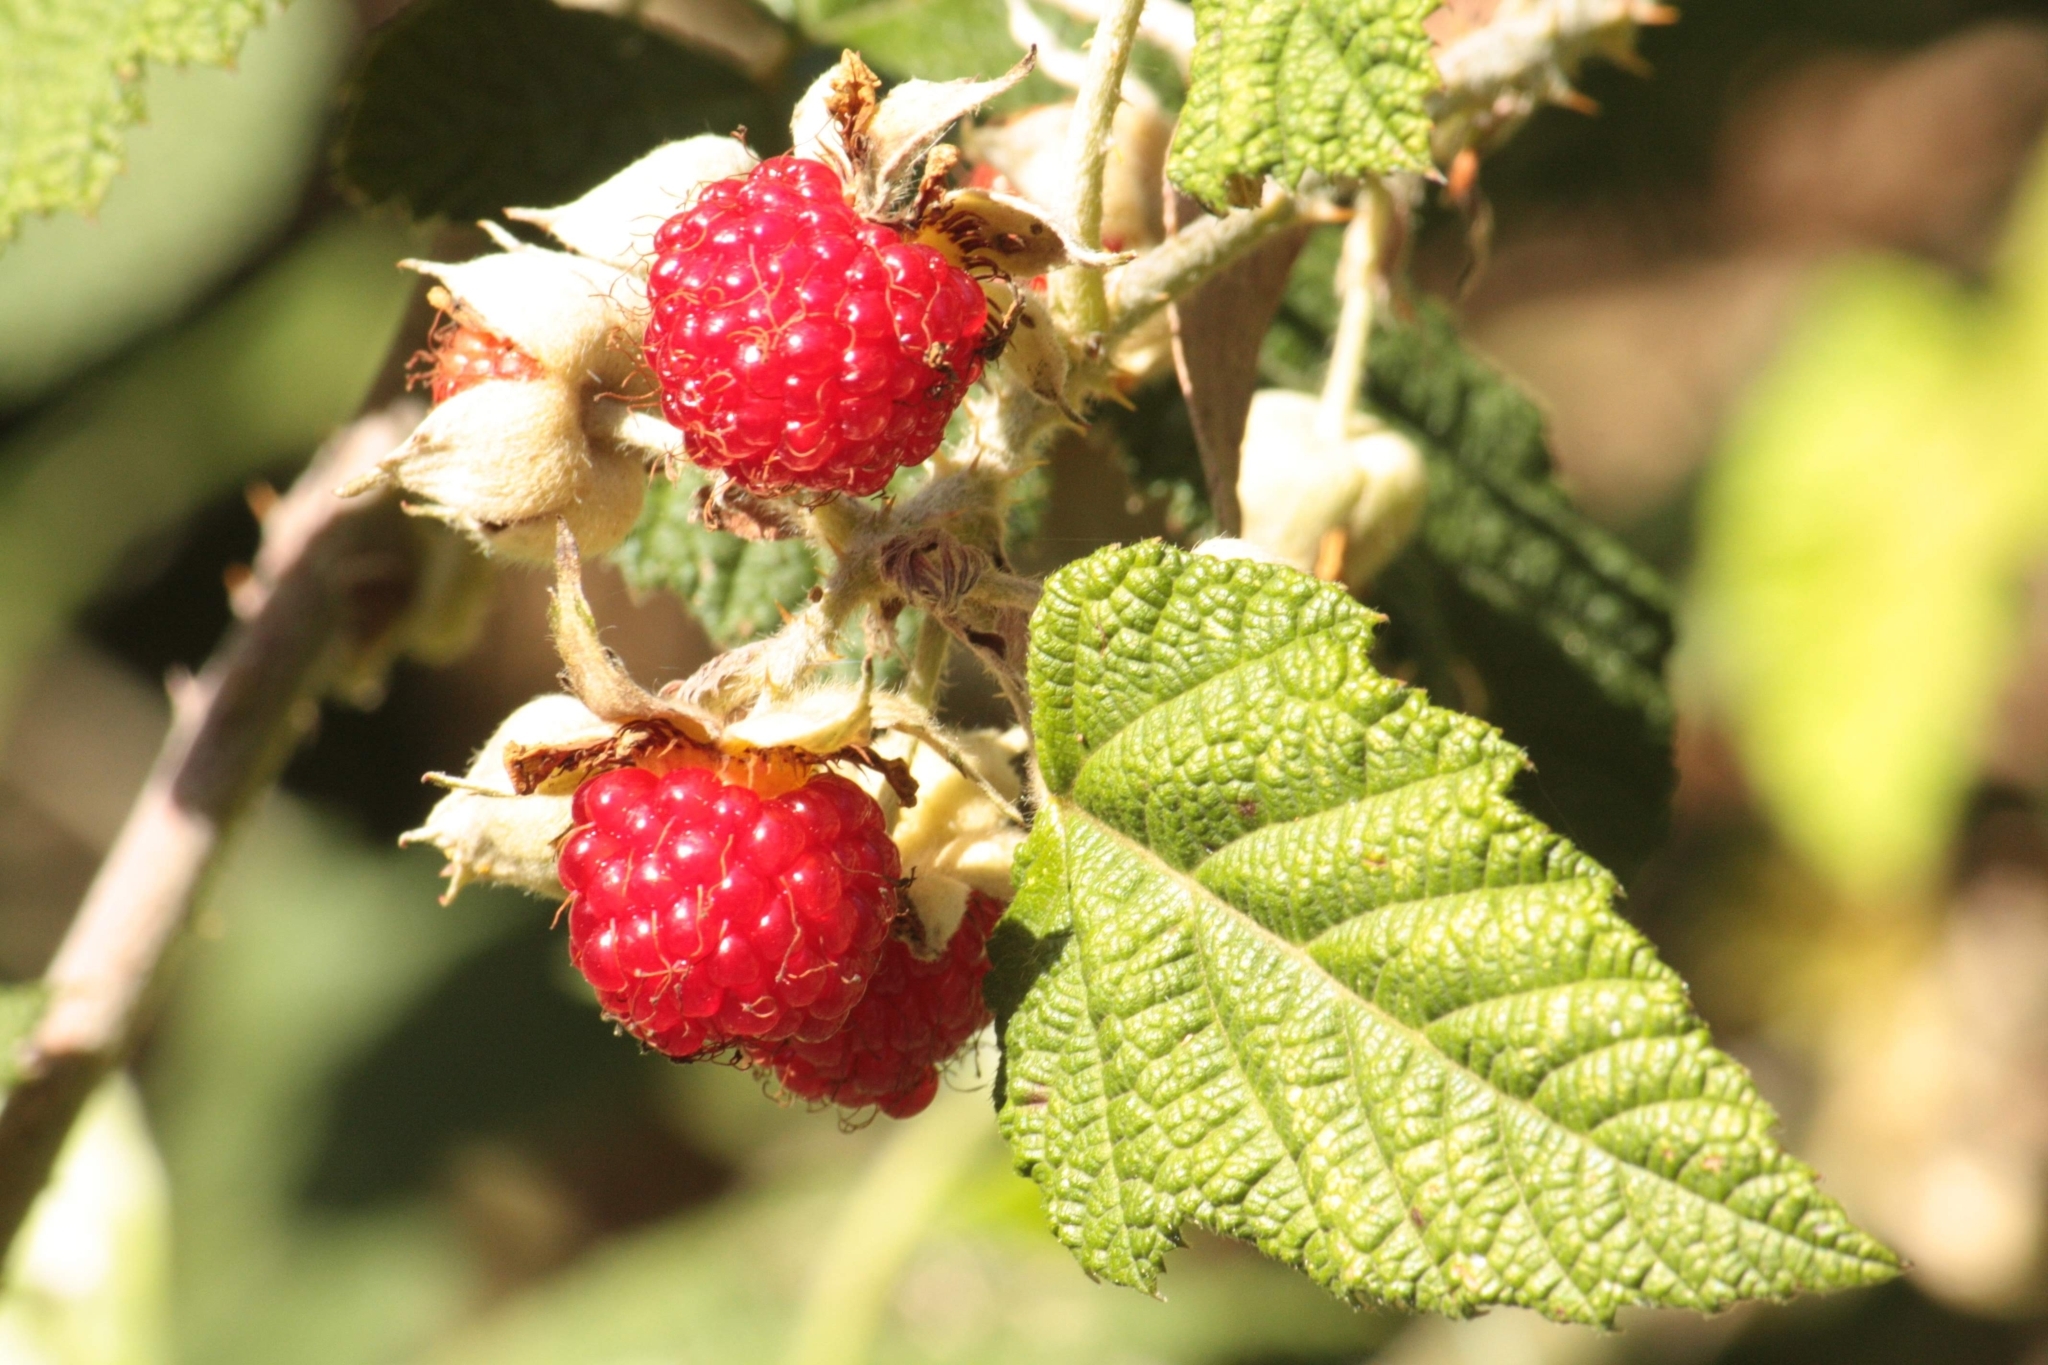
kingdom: Plantae
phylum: Tracheophyta
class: Magnoliopsida
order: Rosales
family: Rosaceae
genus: Rubus
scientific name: Rubus parvifolius
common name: Threeleaf blackberry
